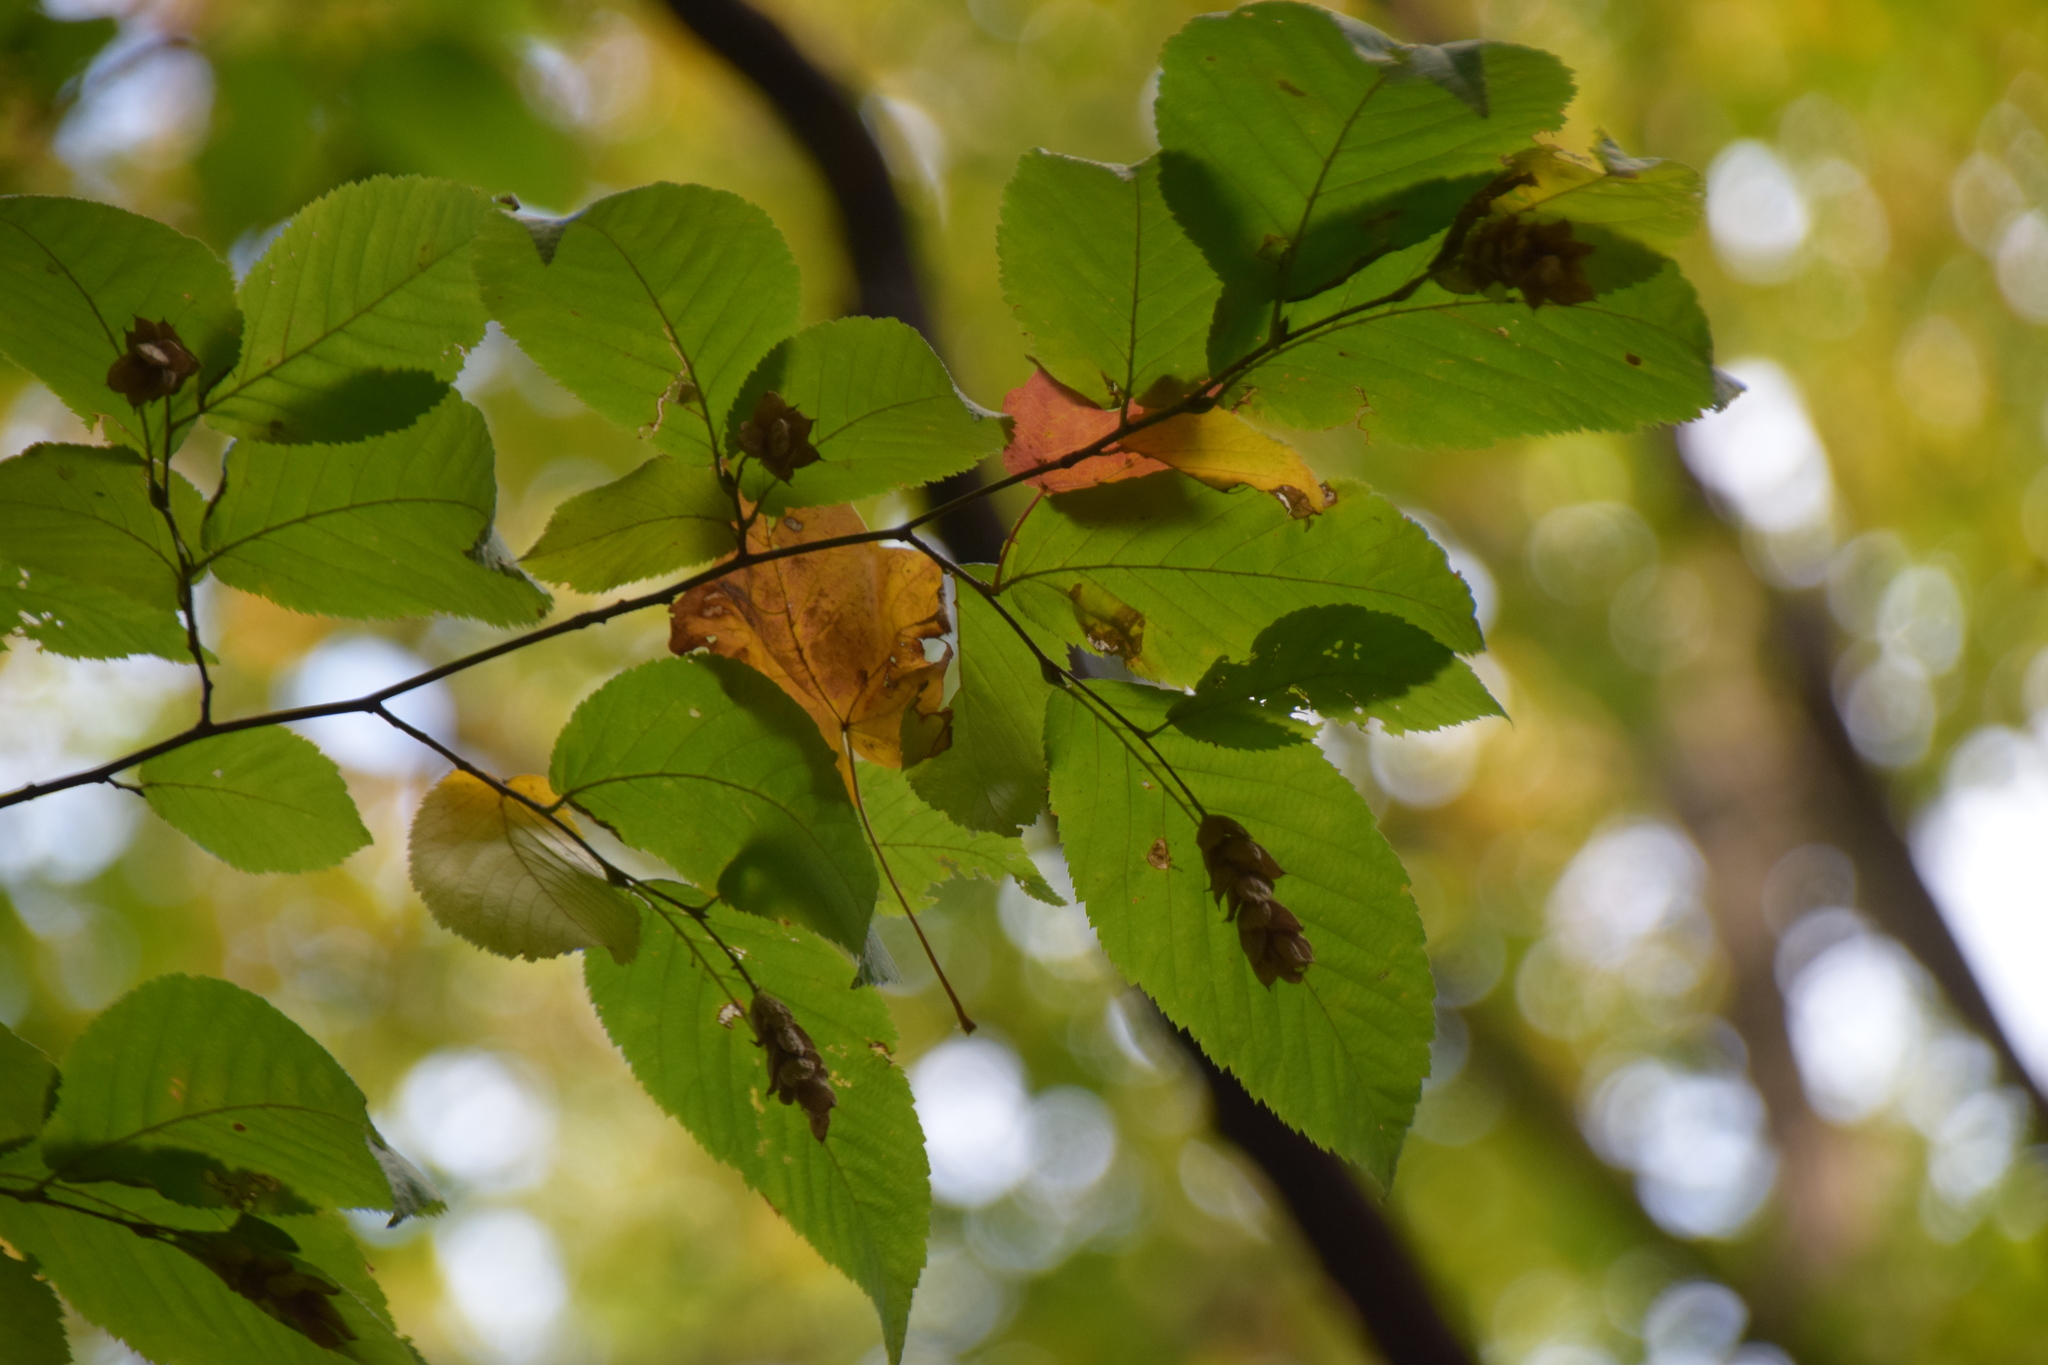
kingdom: Plantae
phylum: Tracheophyta
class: Magnoliopsida
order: Fagales
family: Betulaceae
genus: Ostrya
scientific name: Ostrya virginiana
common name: Ironwood
